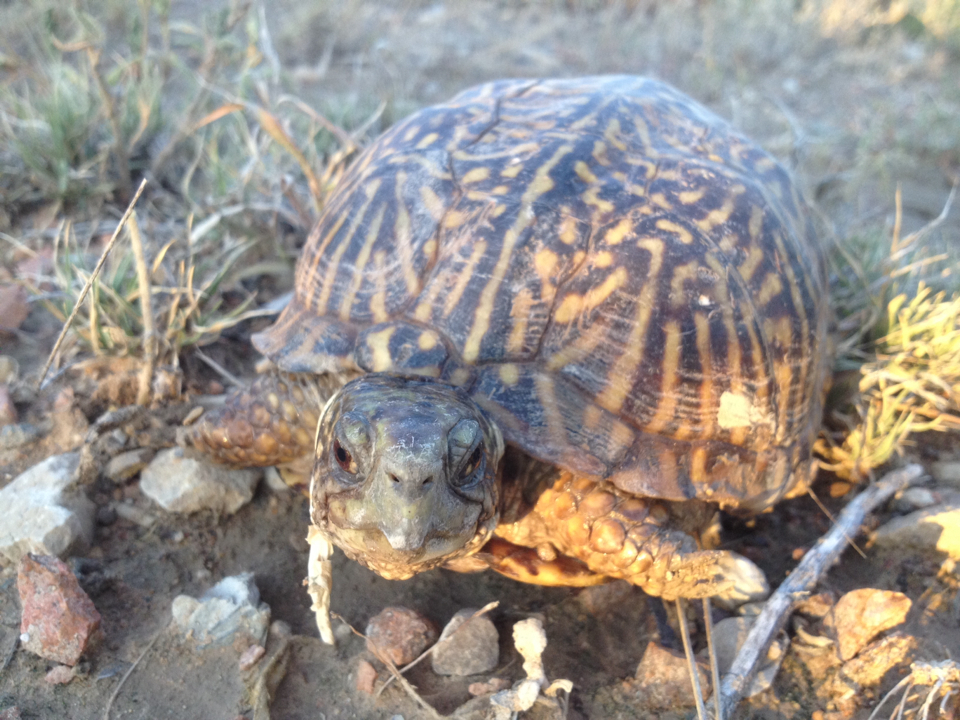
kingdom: Animalia
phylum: Chordata
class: Testudines
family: Emydidae
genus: Terrapene
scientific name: Terrapene ornata
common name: Western box turtle
